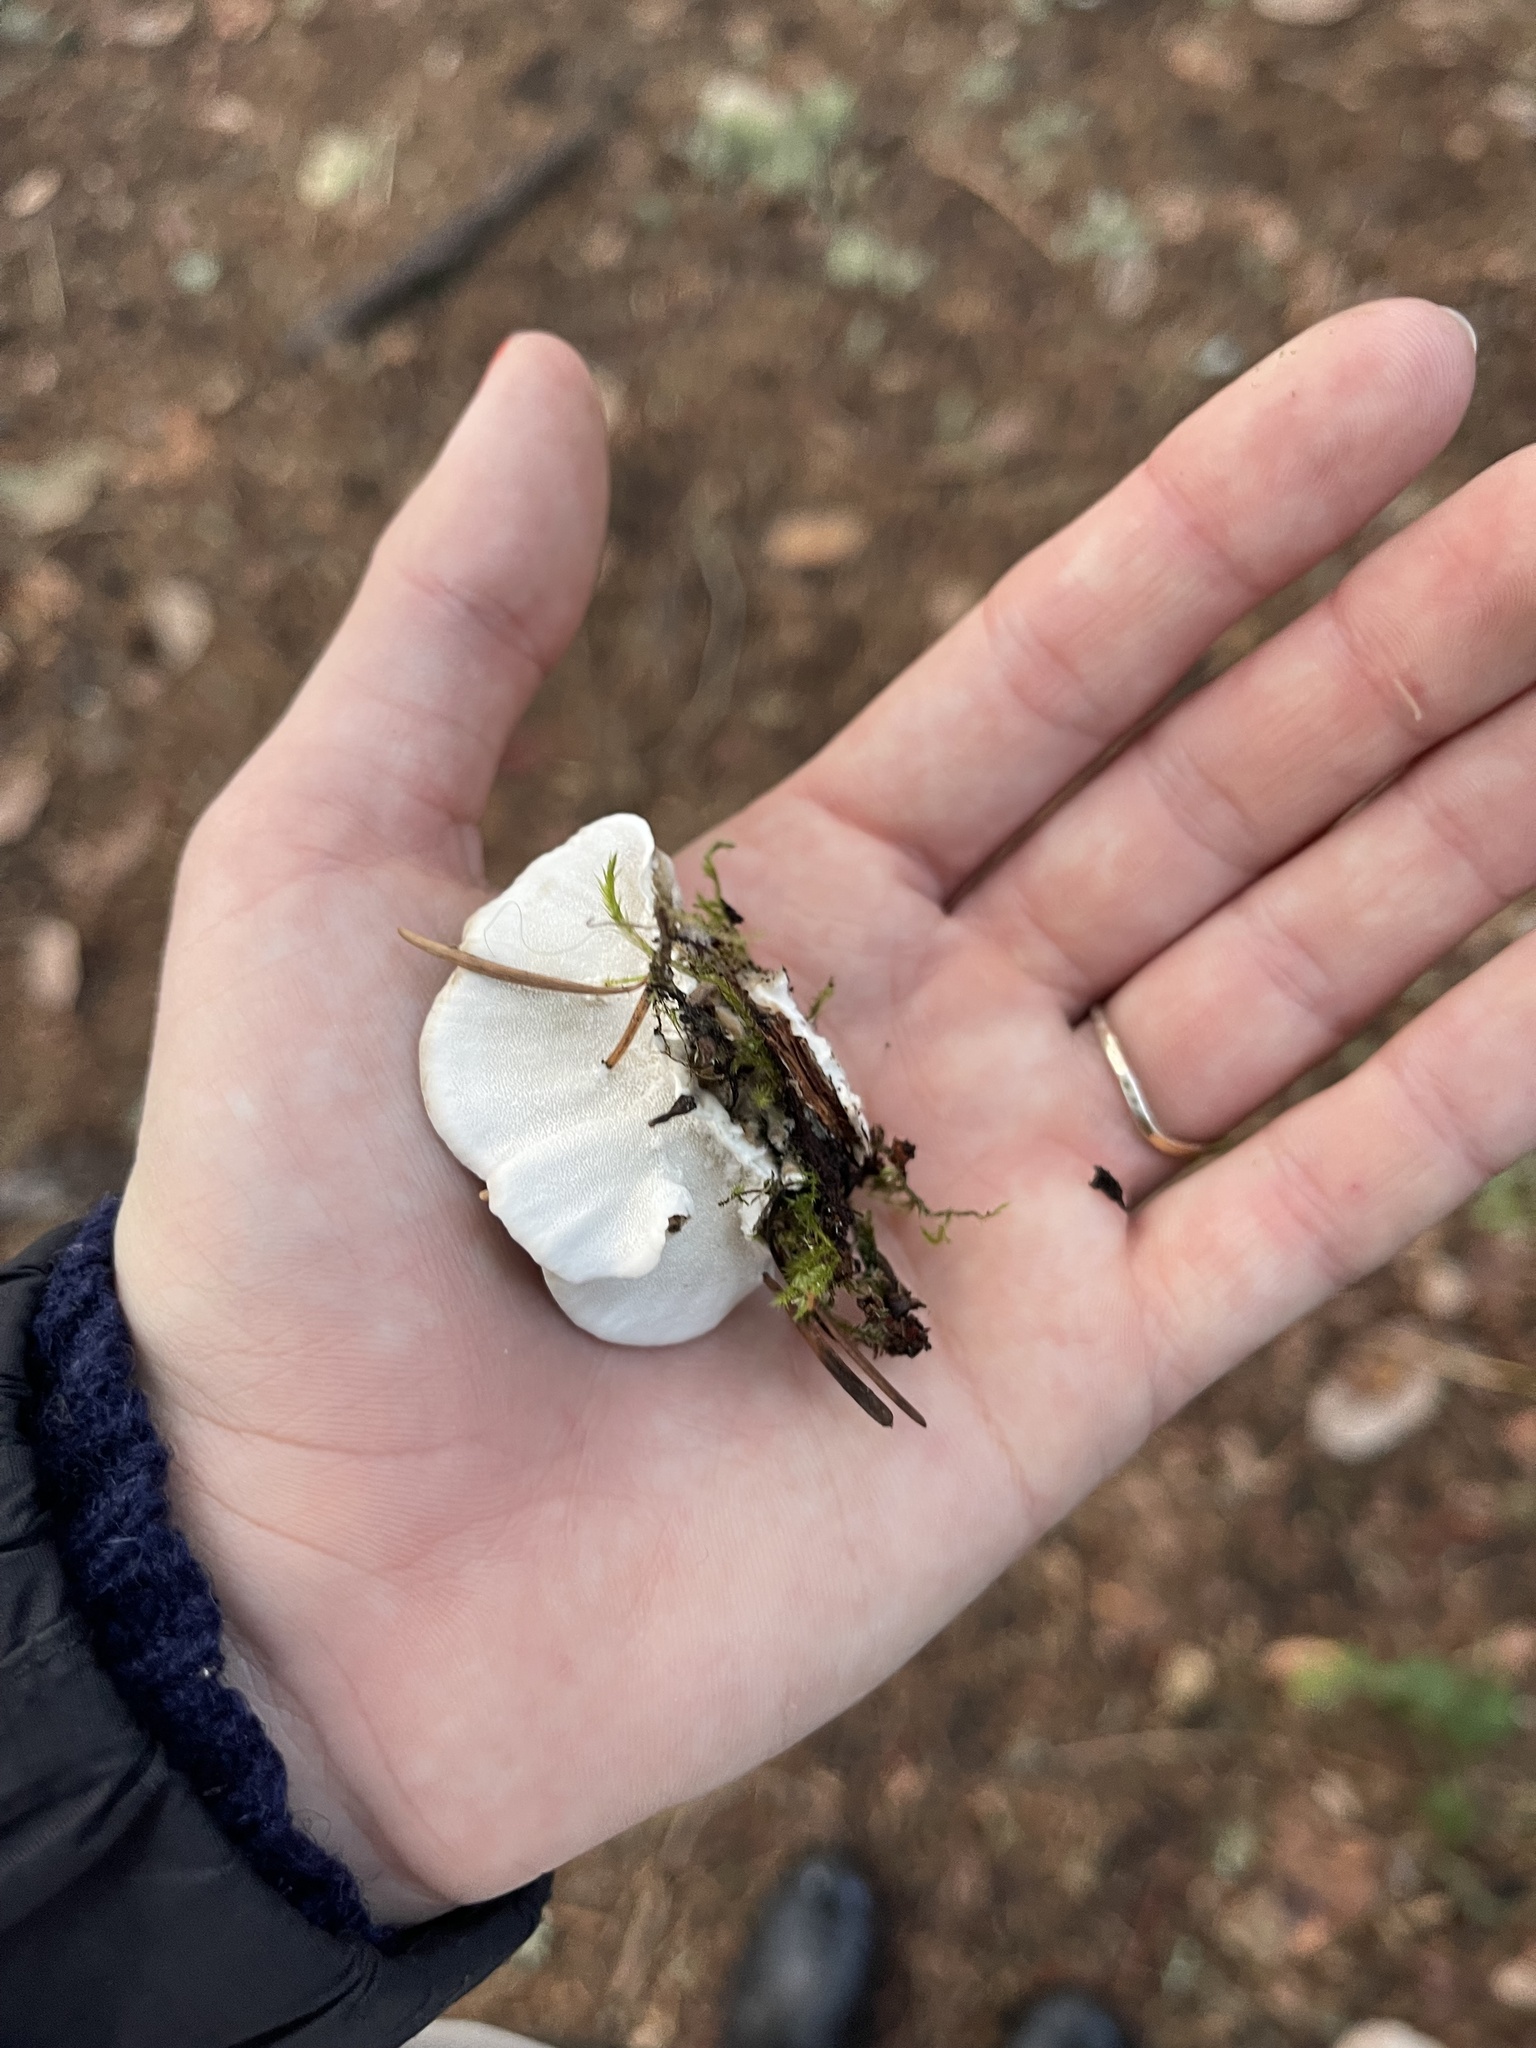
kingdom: Fungi
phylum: Basidiomycota
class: Agaricomycetes
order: Polyporales
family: Polyporaceae
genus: Trametes
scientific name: Trametes versicolor
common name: Turkeytail
